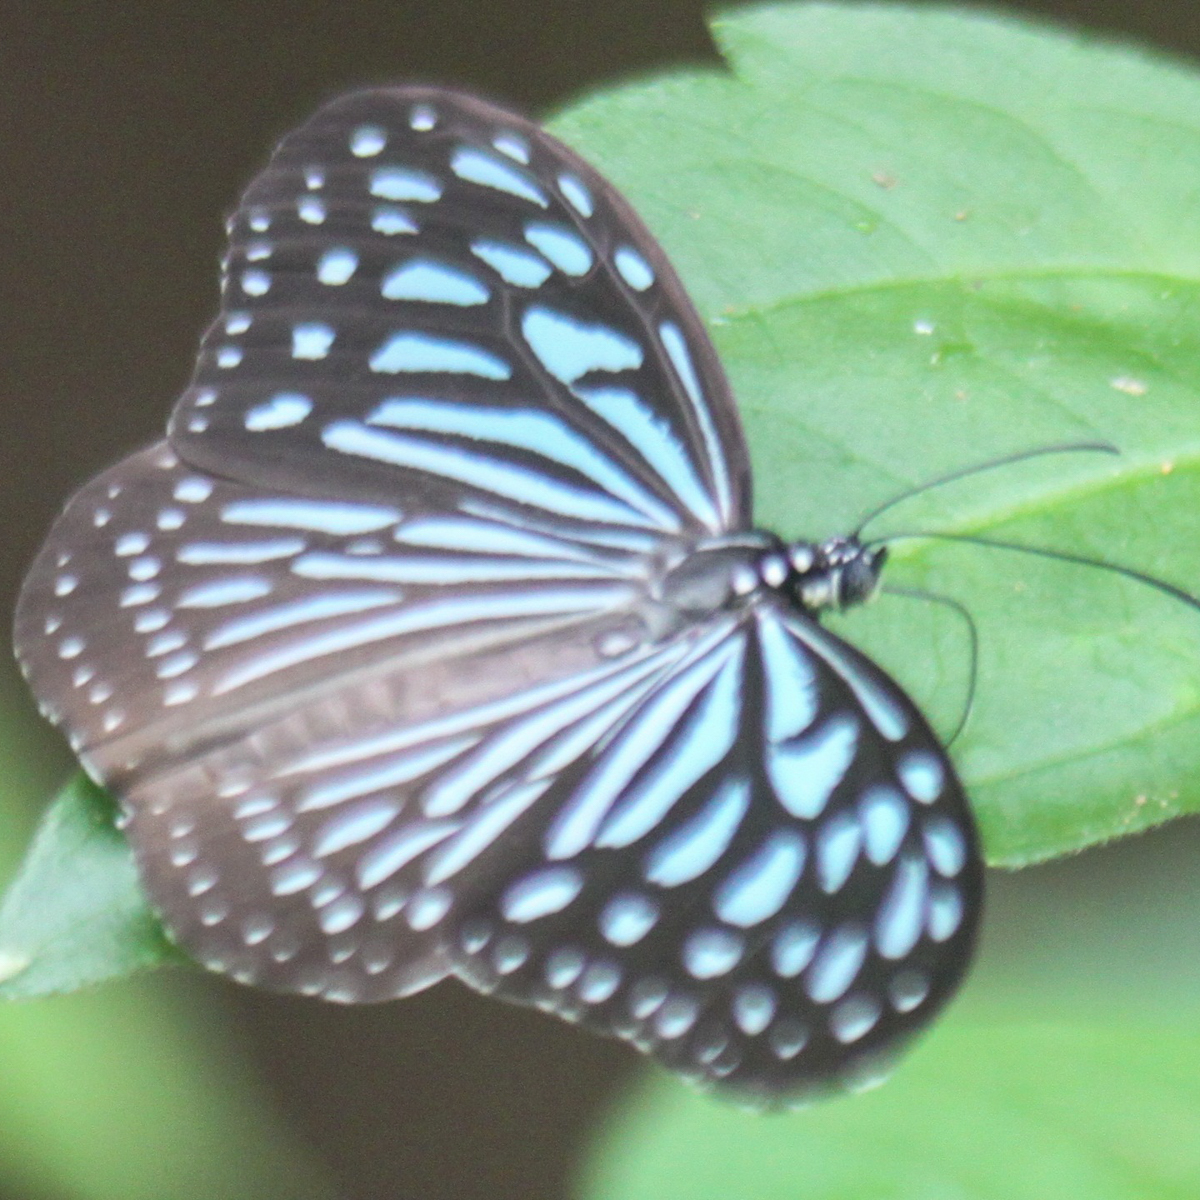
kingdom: Animalia
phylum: Arthropoda
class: Insecta
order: Lepidoptera
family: Nymphalidae
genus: Ideopsis
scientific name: Ideopsis vulgaris
